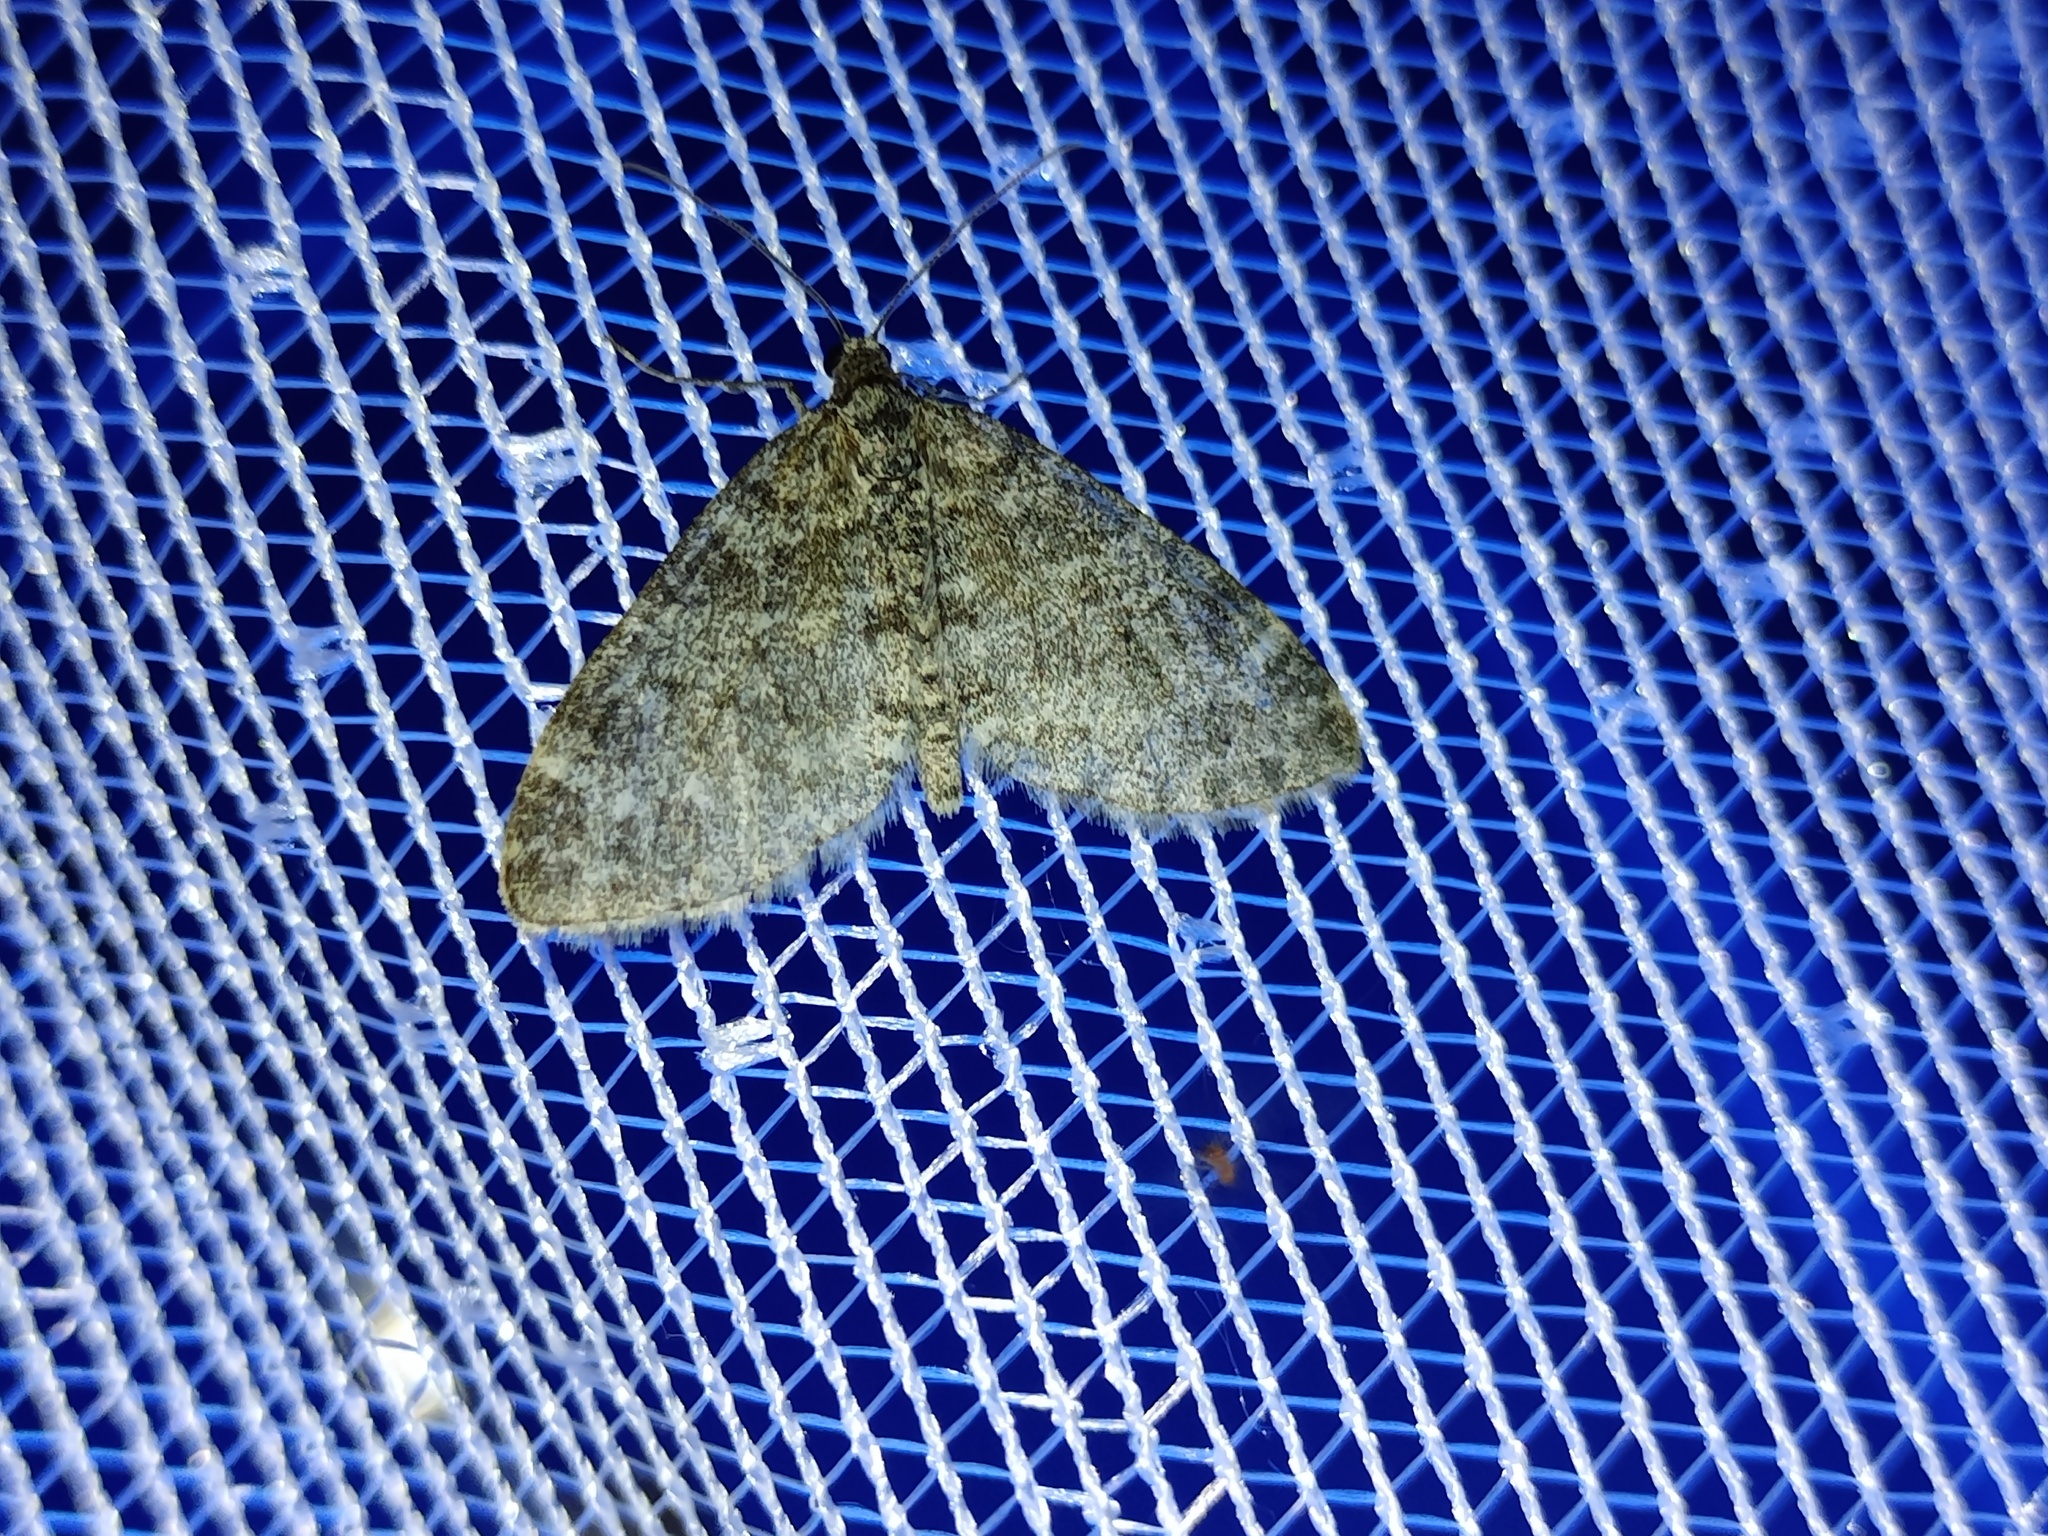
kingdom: Animalia
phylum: Arthropoda
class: Insecta
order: Lepidoptera
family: Geometridae
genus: Lobophora
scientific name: Lobophora halterata
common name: Seraphim
